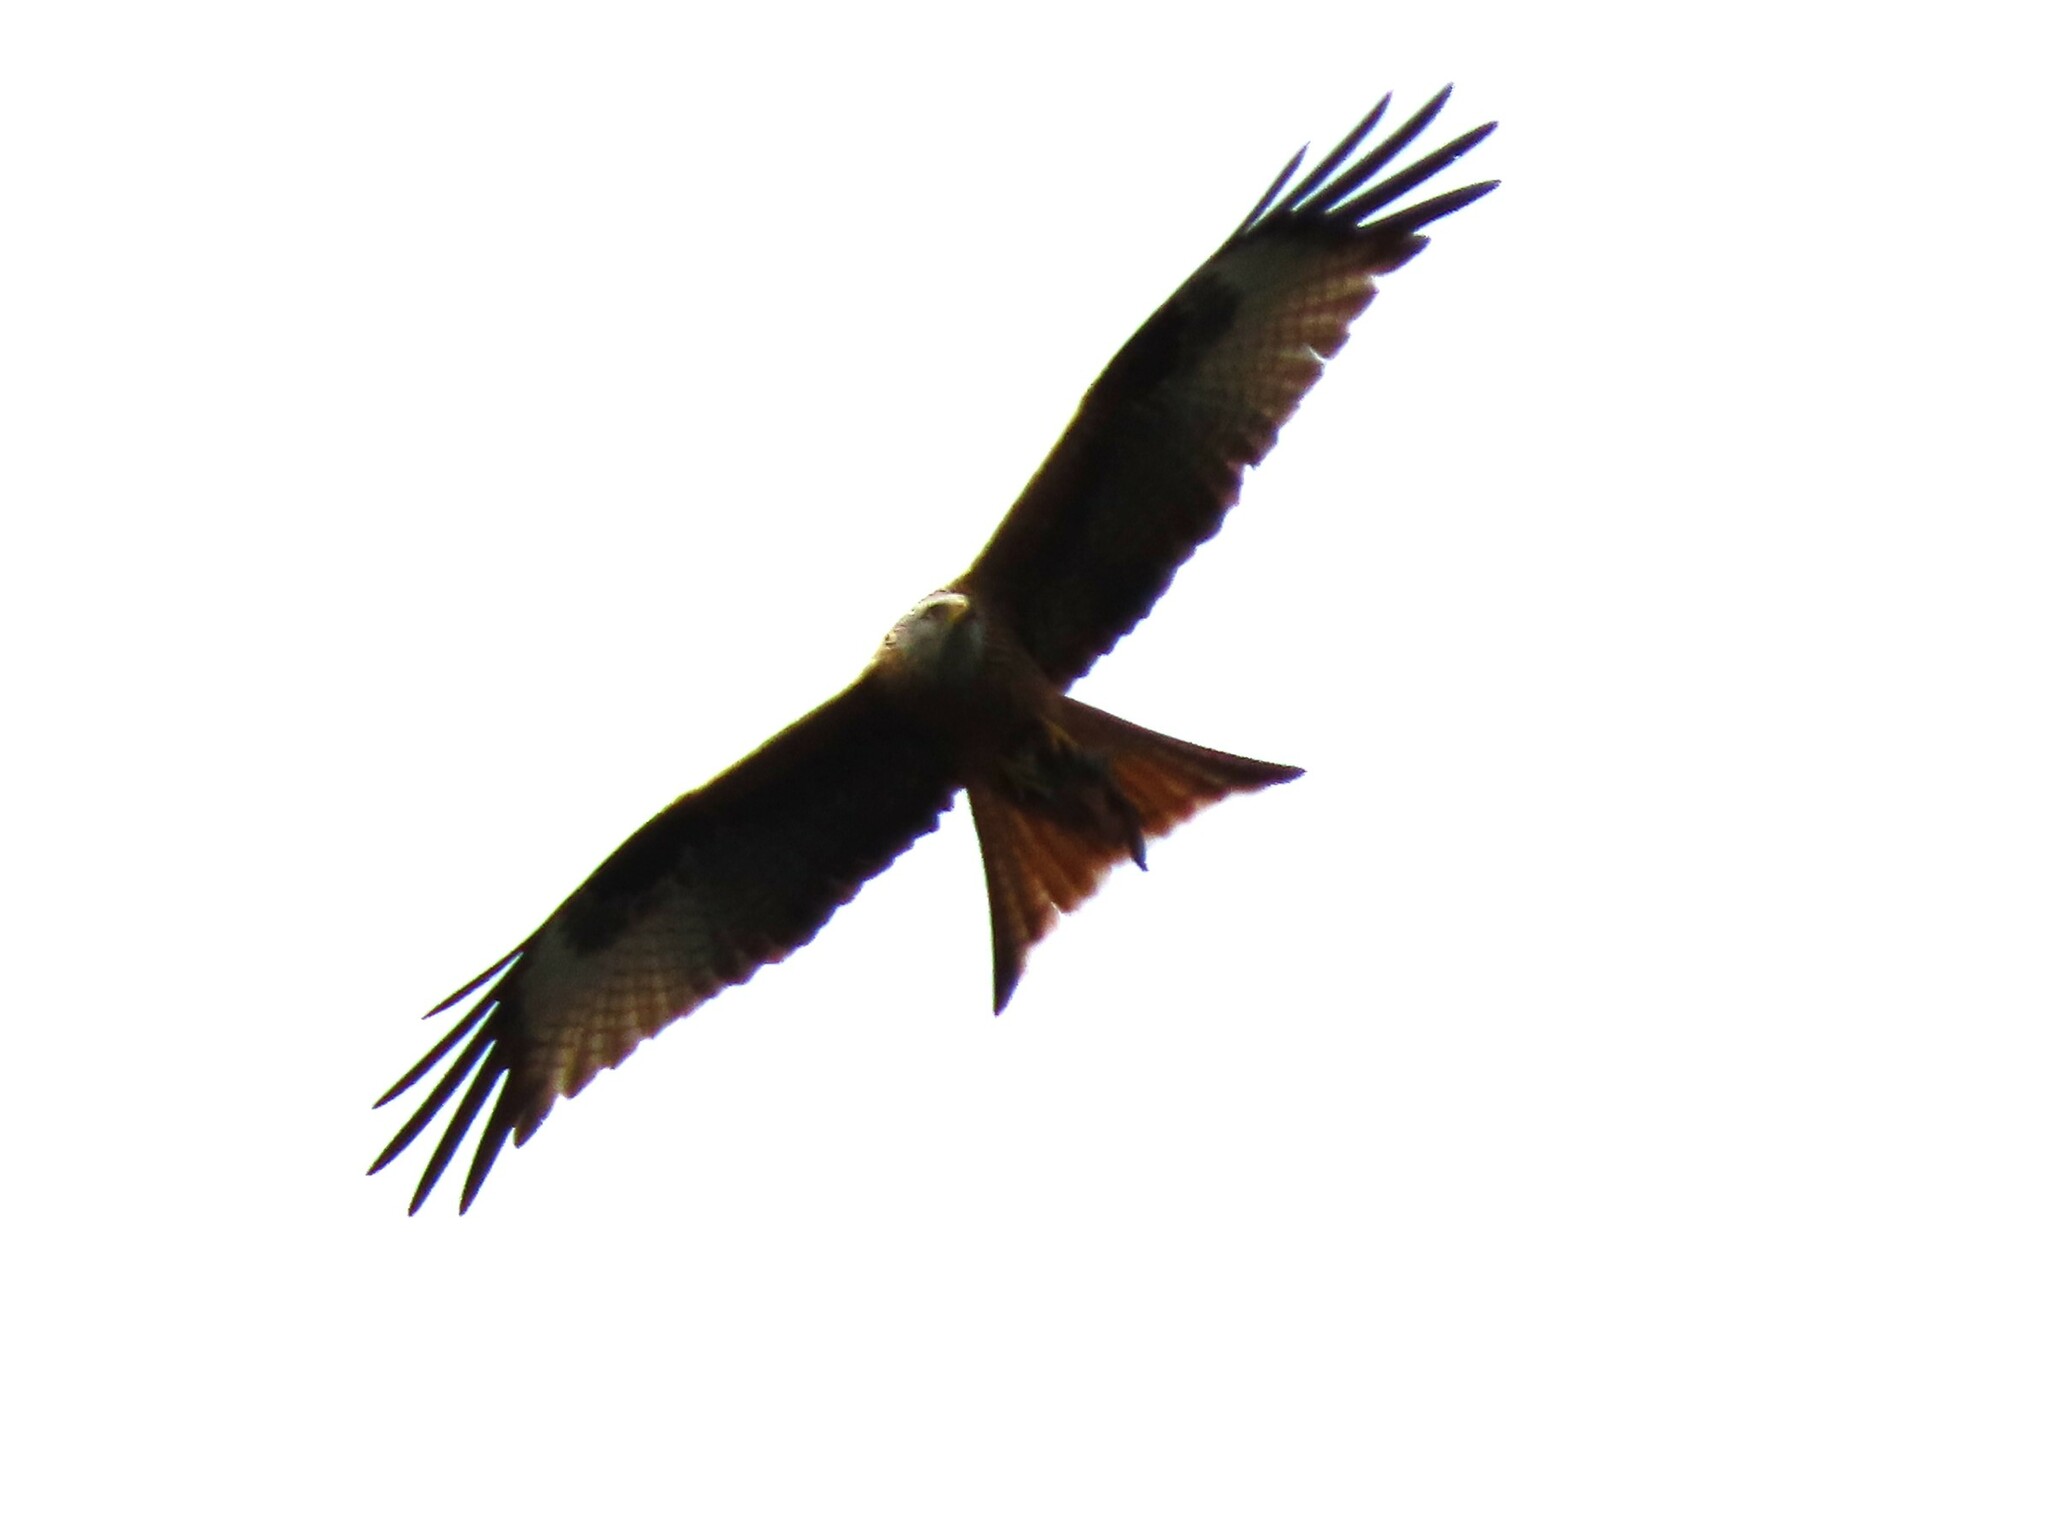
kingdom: Animalia
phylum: Chordata
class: Aves
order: Accipitriformes
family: Accipitridae
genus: Milvus
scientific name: Milvus milvus
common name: Red kite
